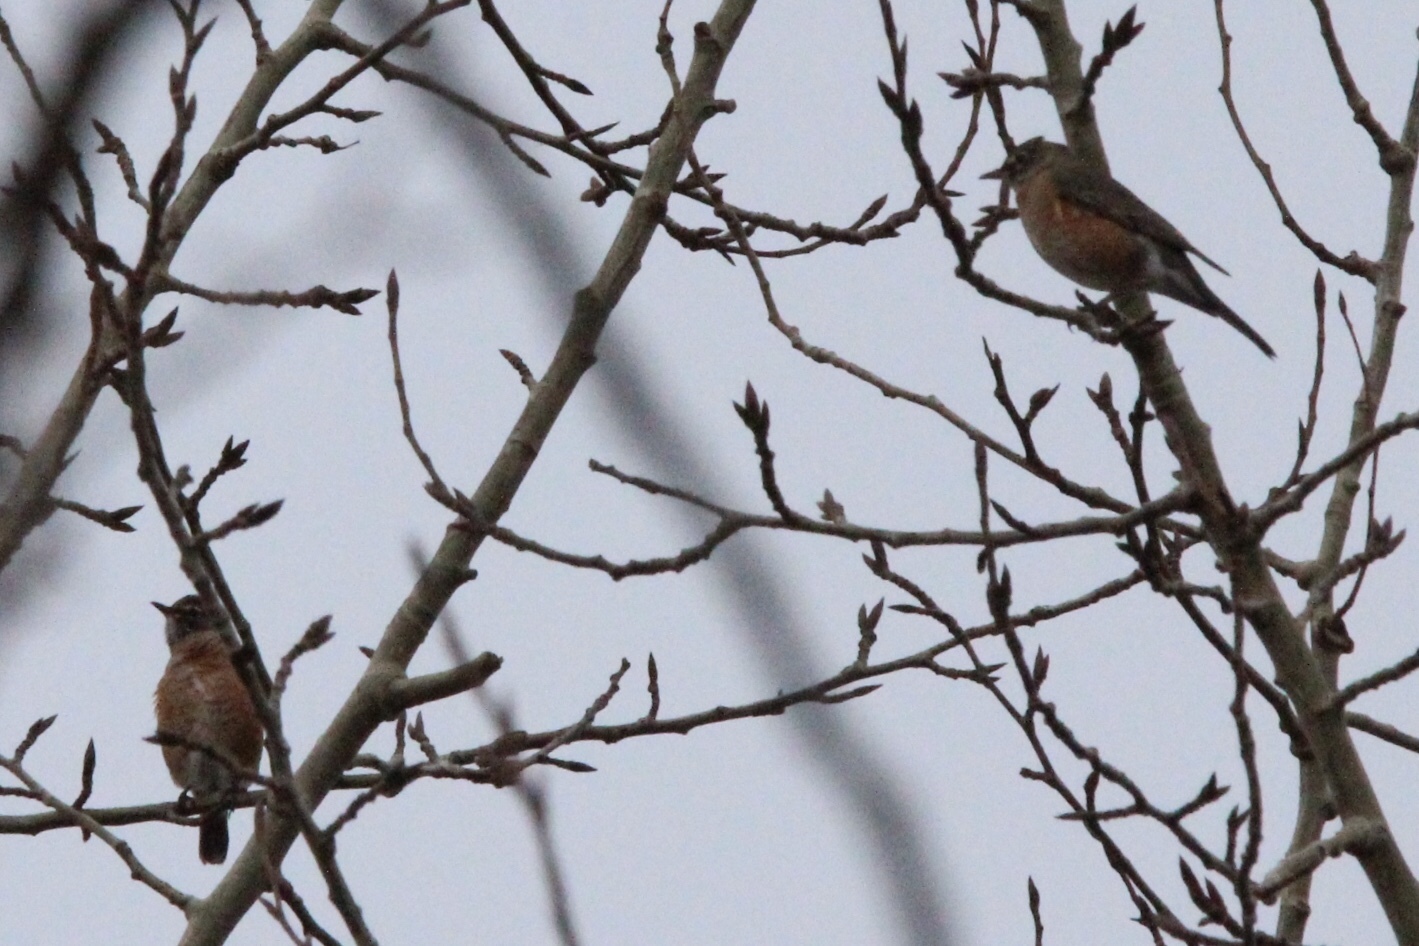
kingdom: Animalia
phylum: Chordata
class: Aves
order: Passeriformes
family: Turdidae
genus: Turdus
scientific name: Turdus migratorius
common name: American robin
